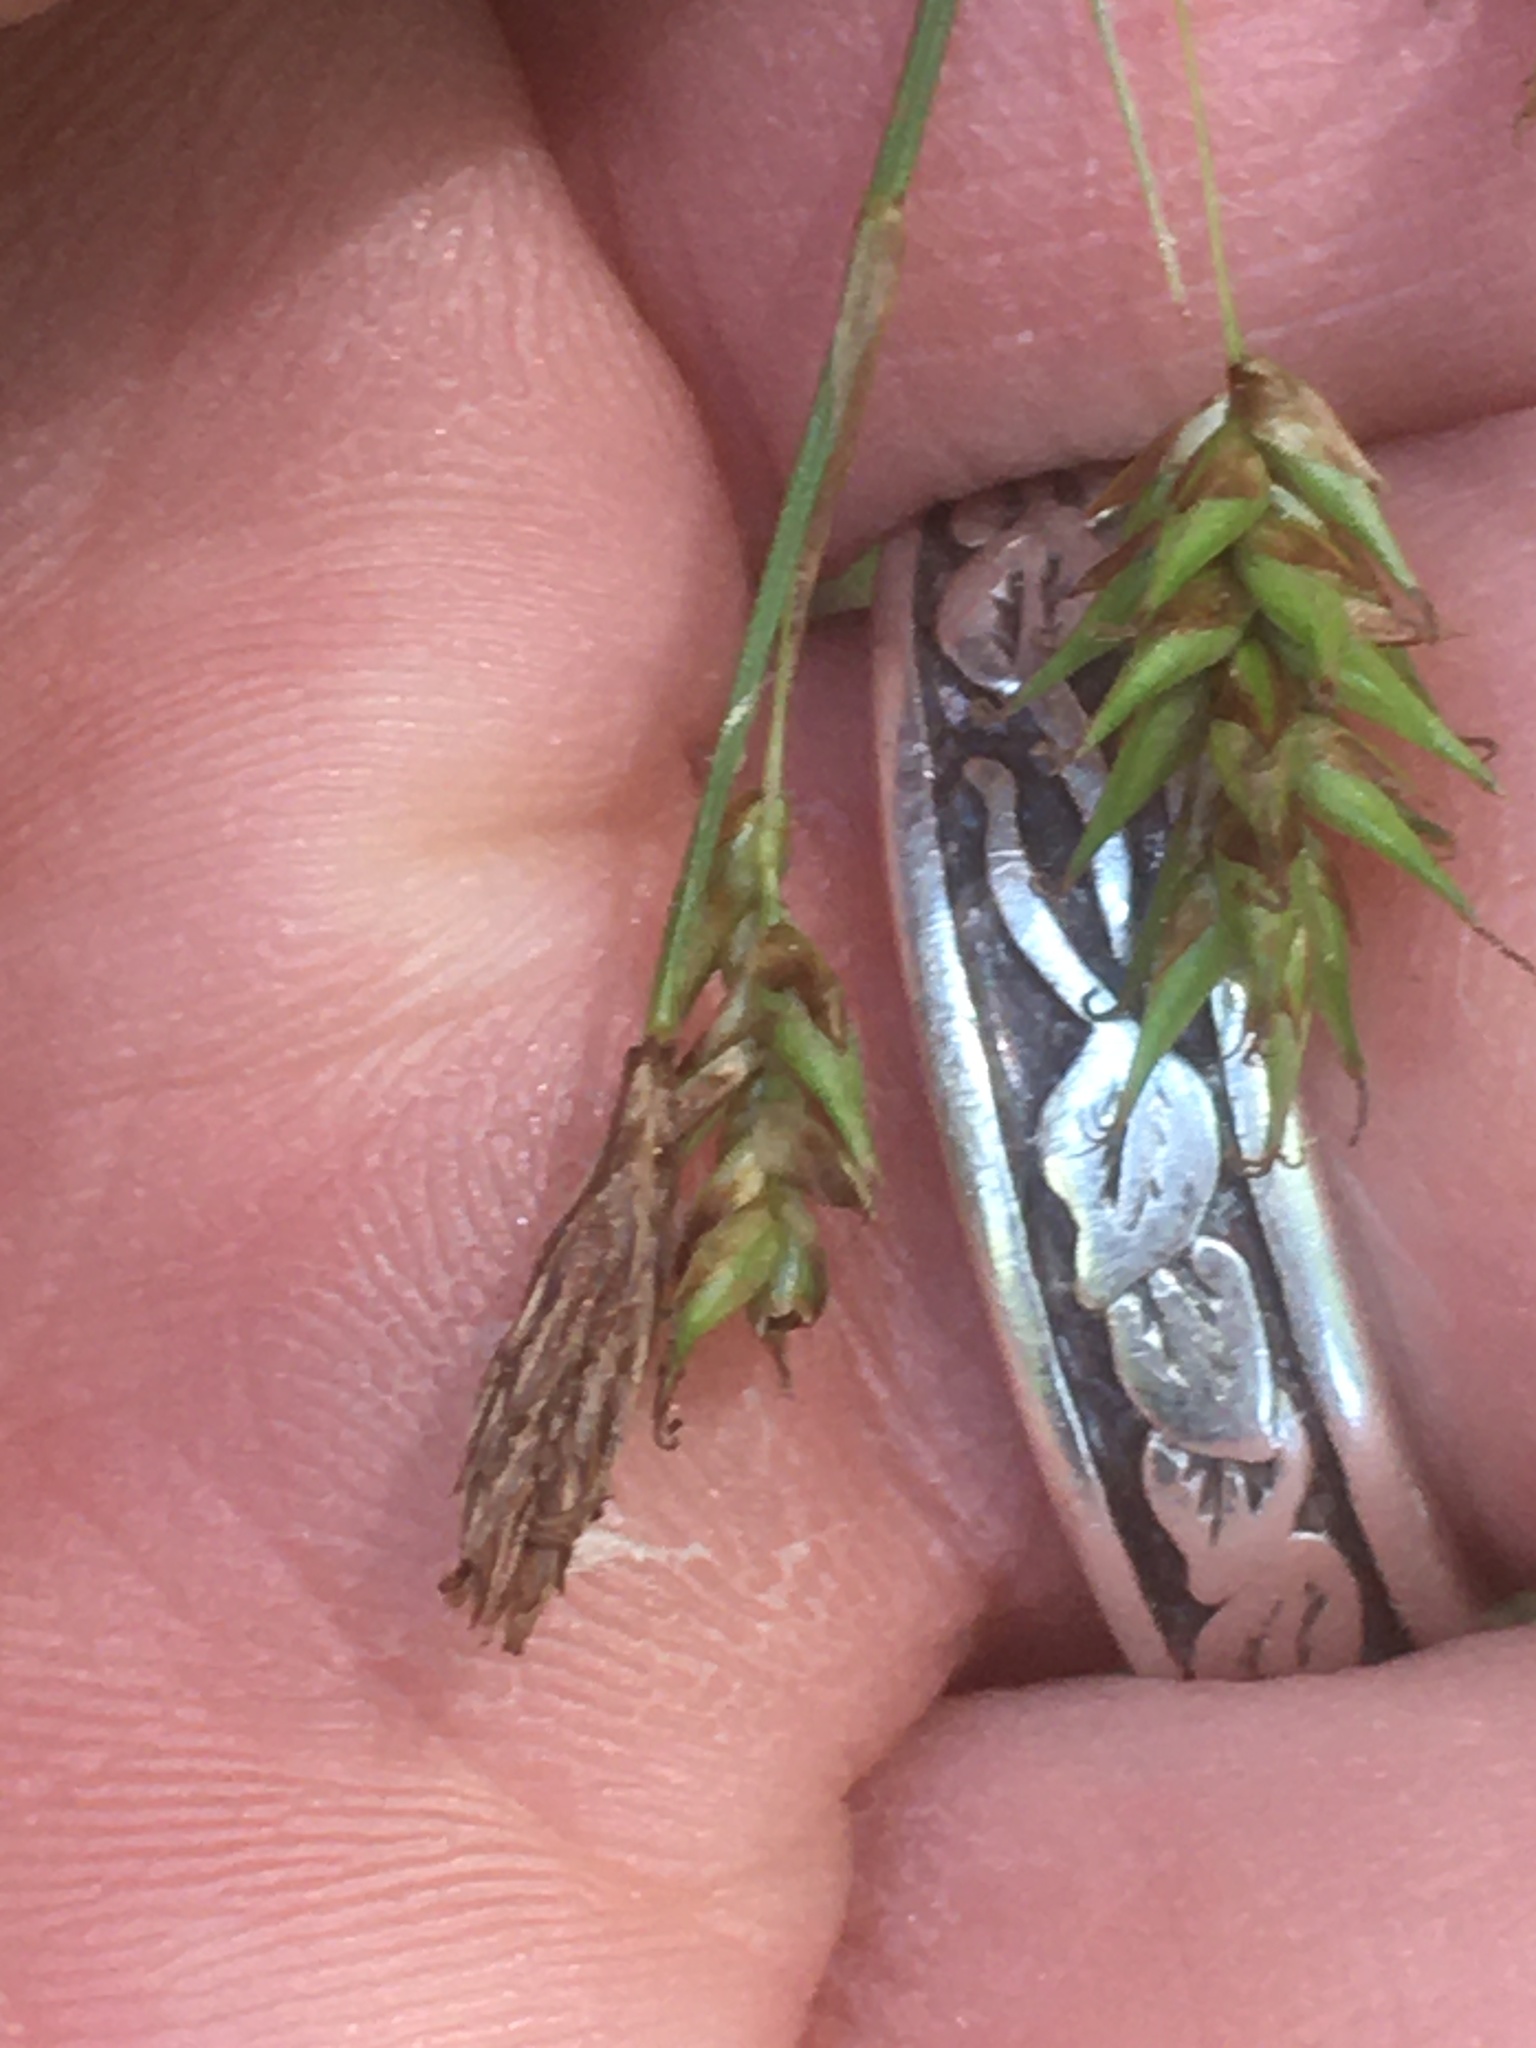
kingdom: Plantae
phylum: Tracheophyta
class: Liliopsida
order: Poales
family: Cyperaceae
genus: Carex
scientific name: Carex castanea
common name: Chestnut sedge
